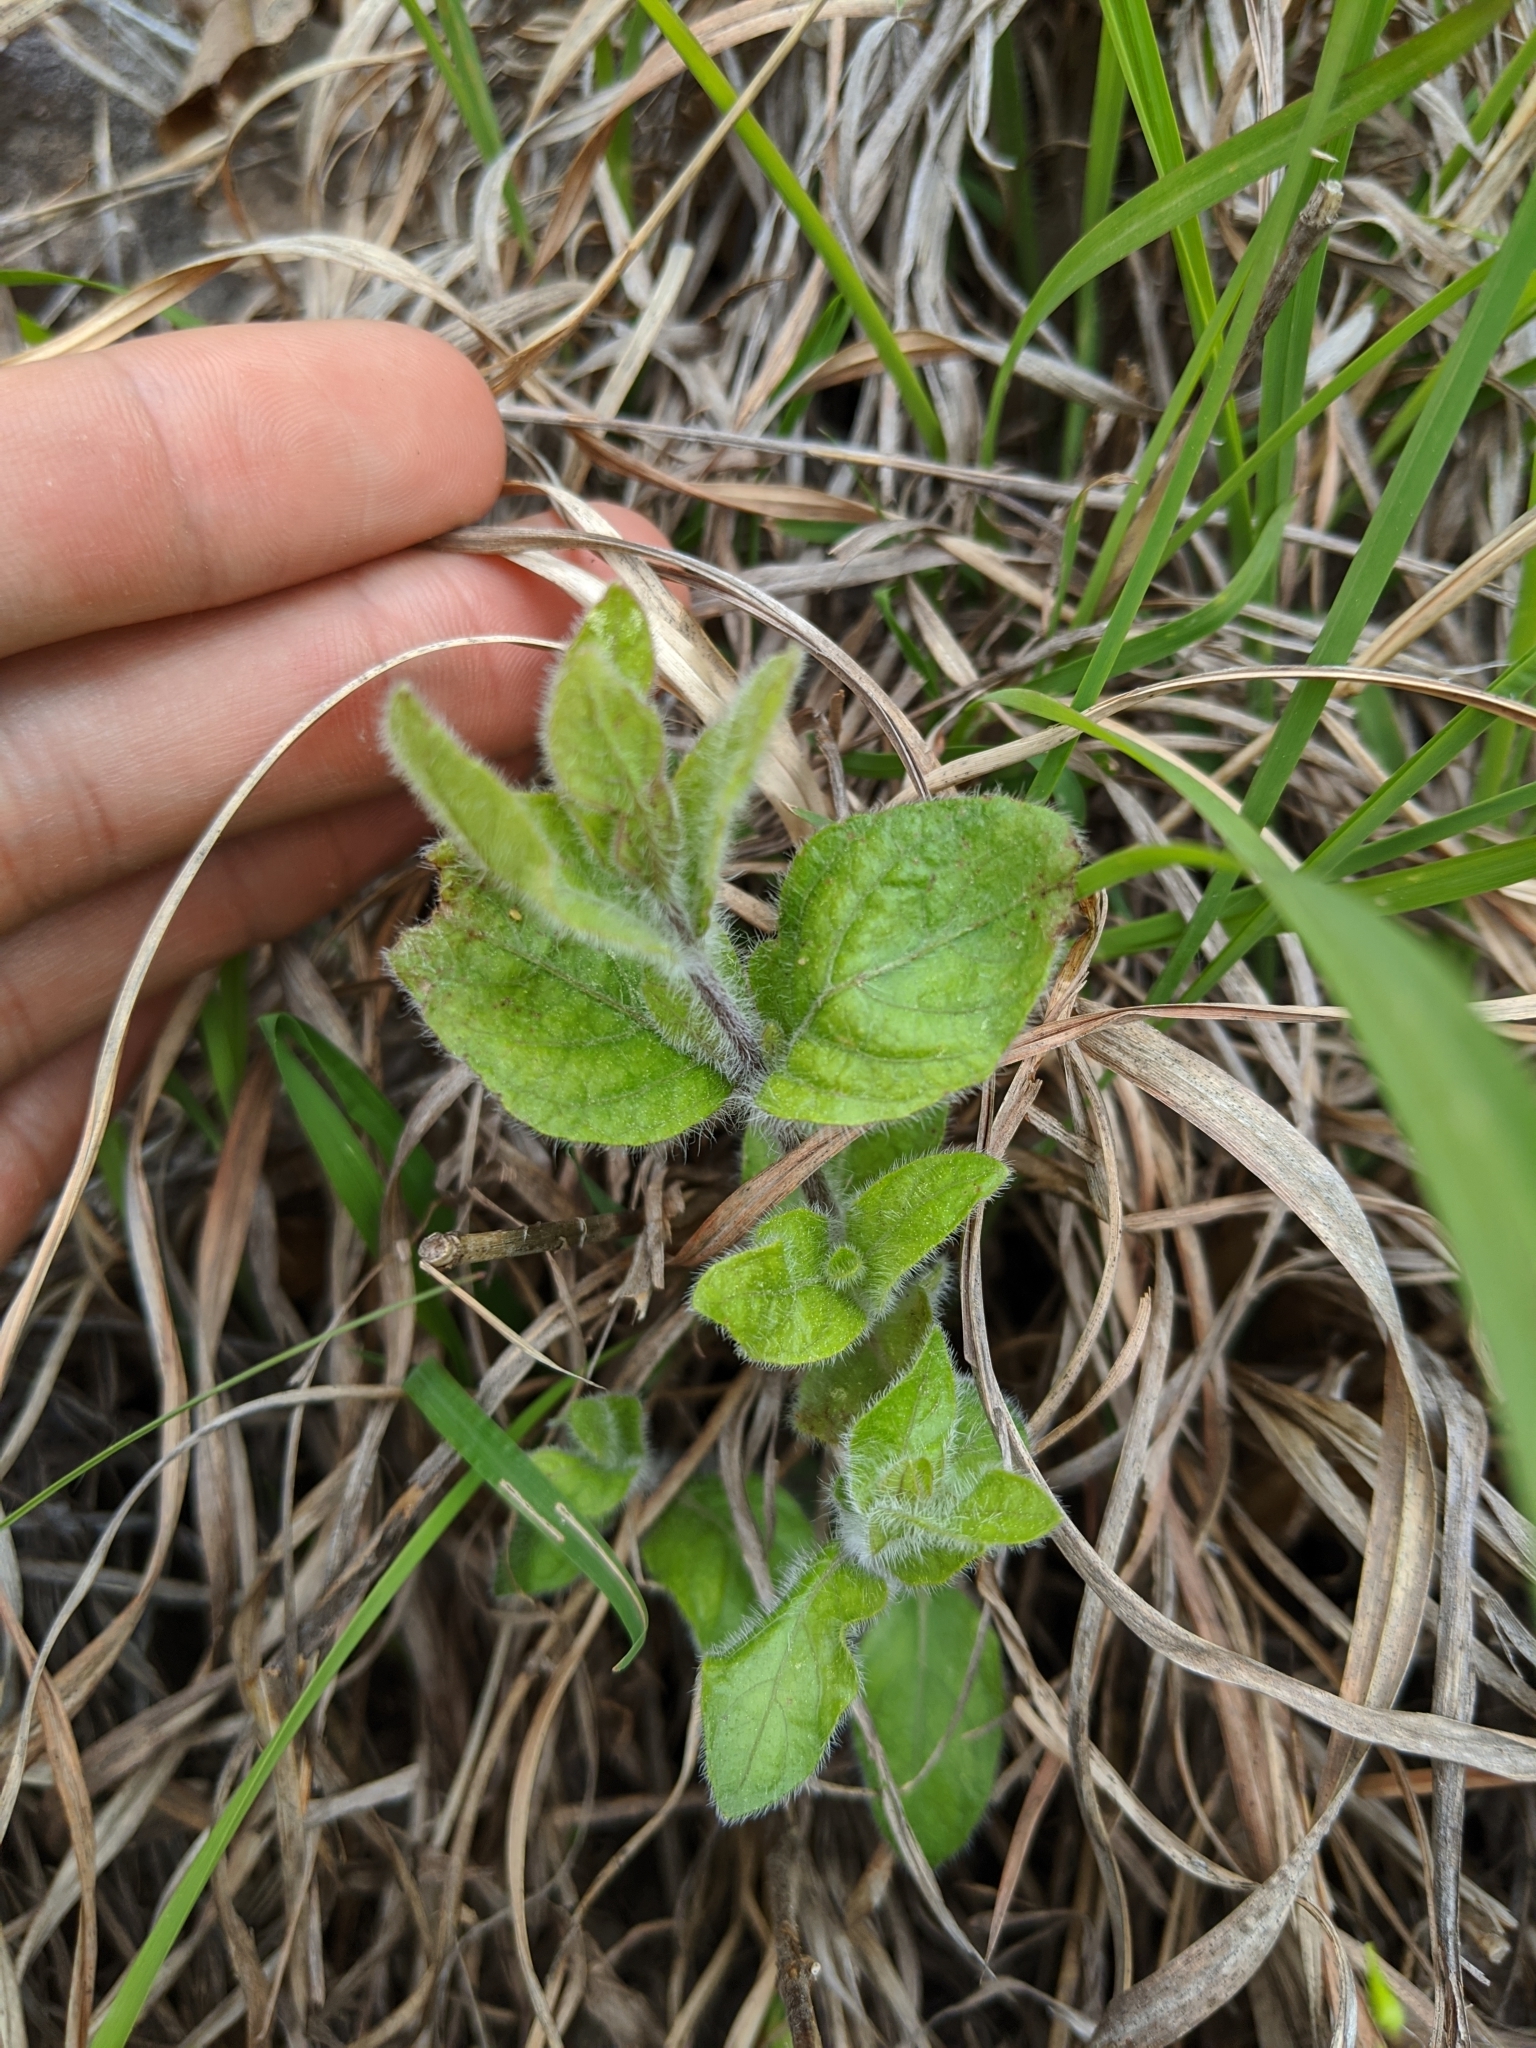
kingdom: Plantae
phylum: Tracheophyta
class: Magnoliopsida
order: Lamiales
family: Acanthaceae
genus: Ruellia
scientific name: Ruellia humilis
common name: Fringe-leaf ruellia
